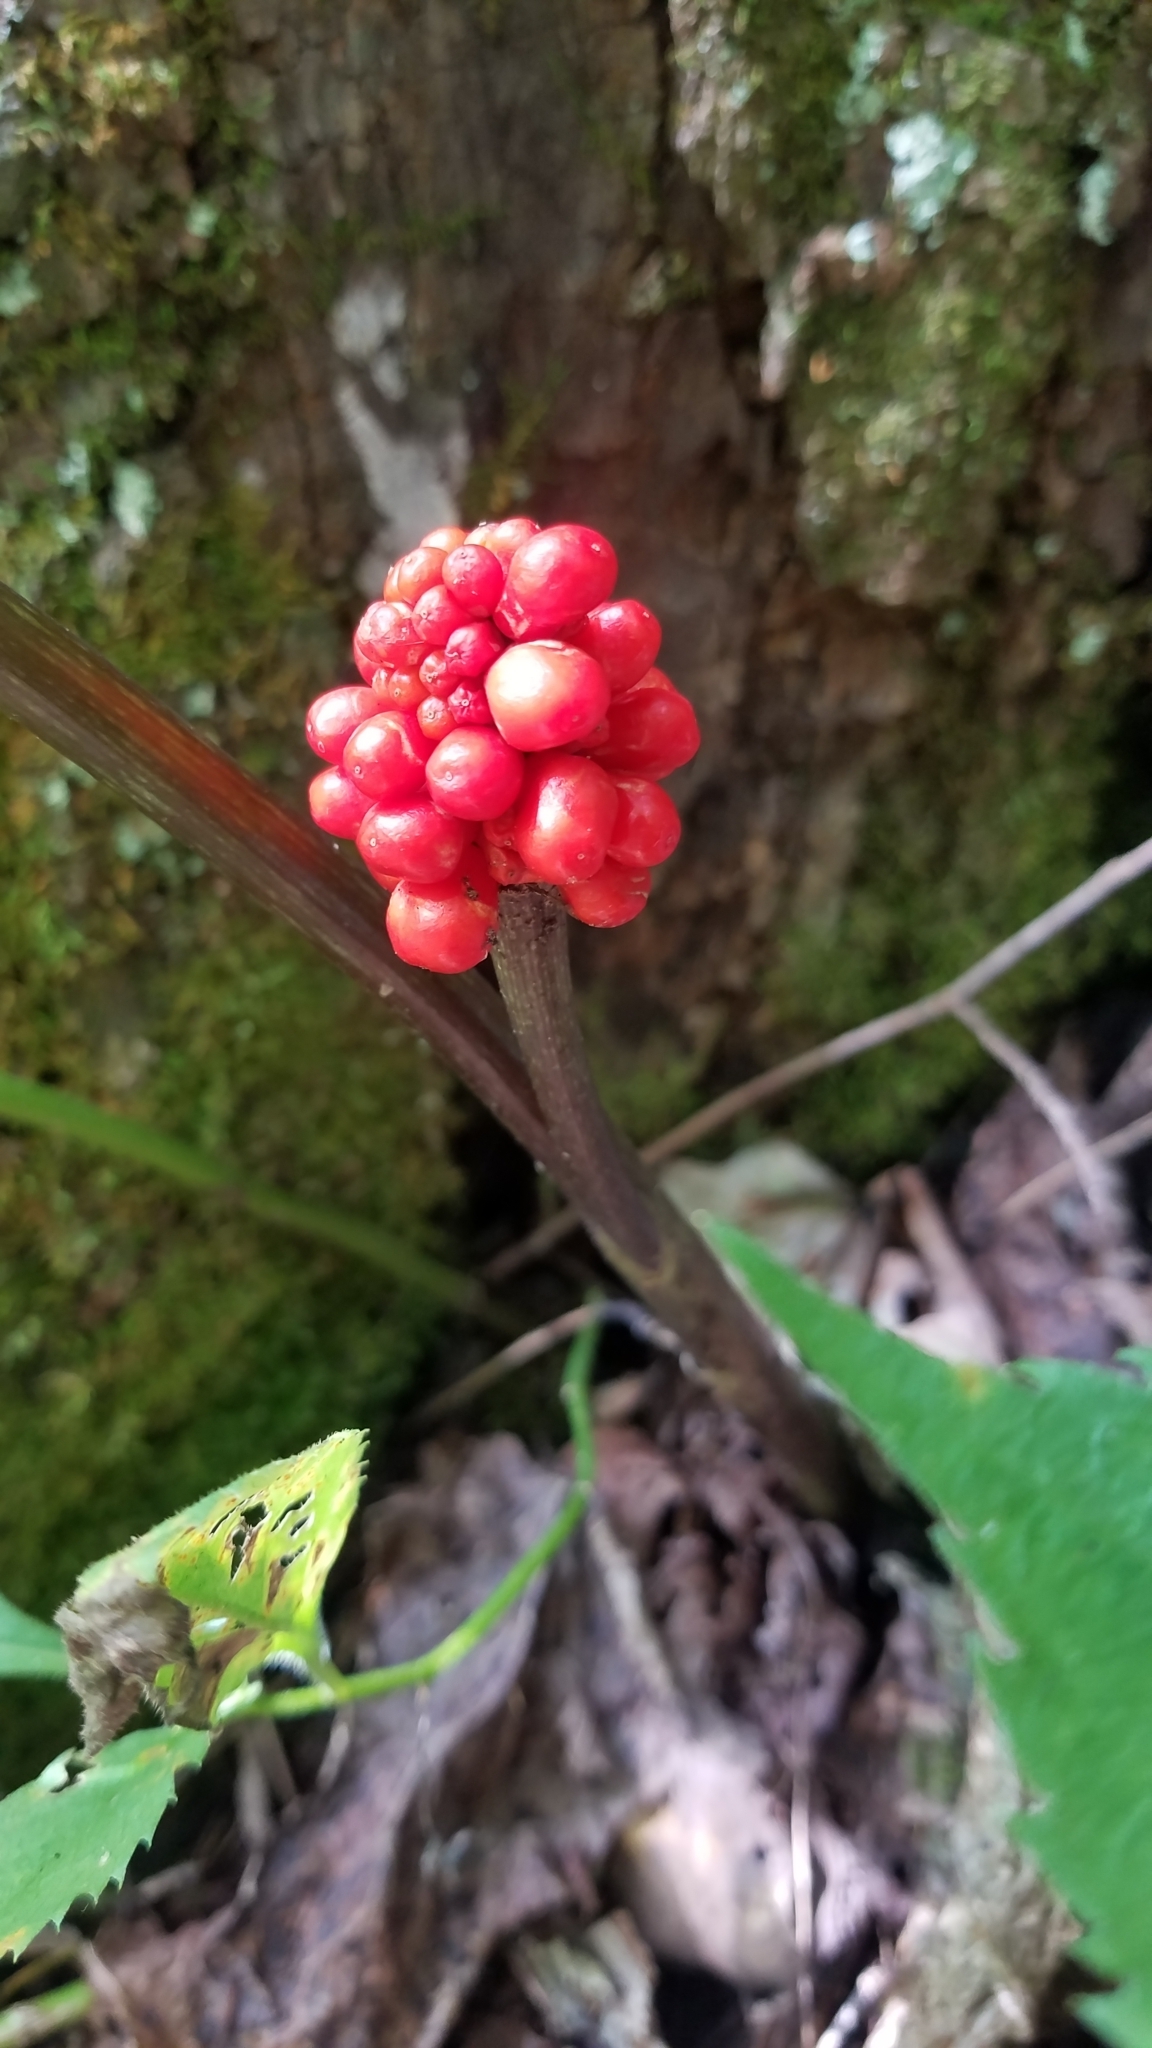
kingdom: Plantae
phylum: Tracheophyta
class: Liliopsida
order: Alismatales
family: Araceae
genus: Arisaema
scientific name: Arisaema triphyllum
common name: Jack-in-the-pulpit
